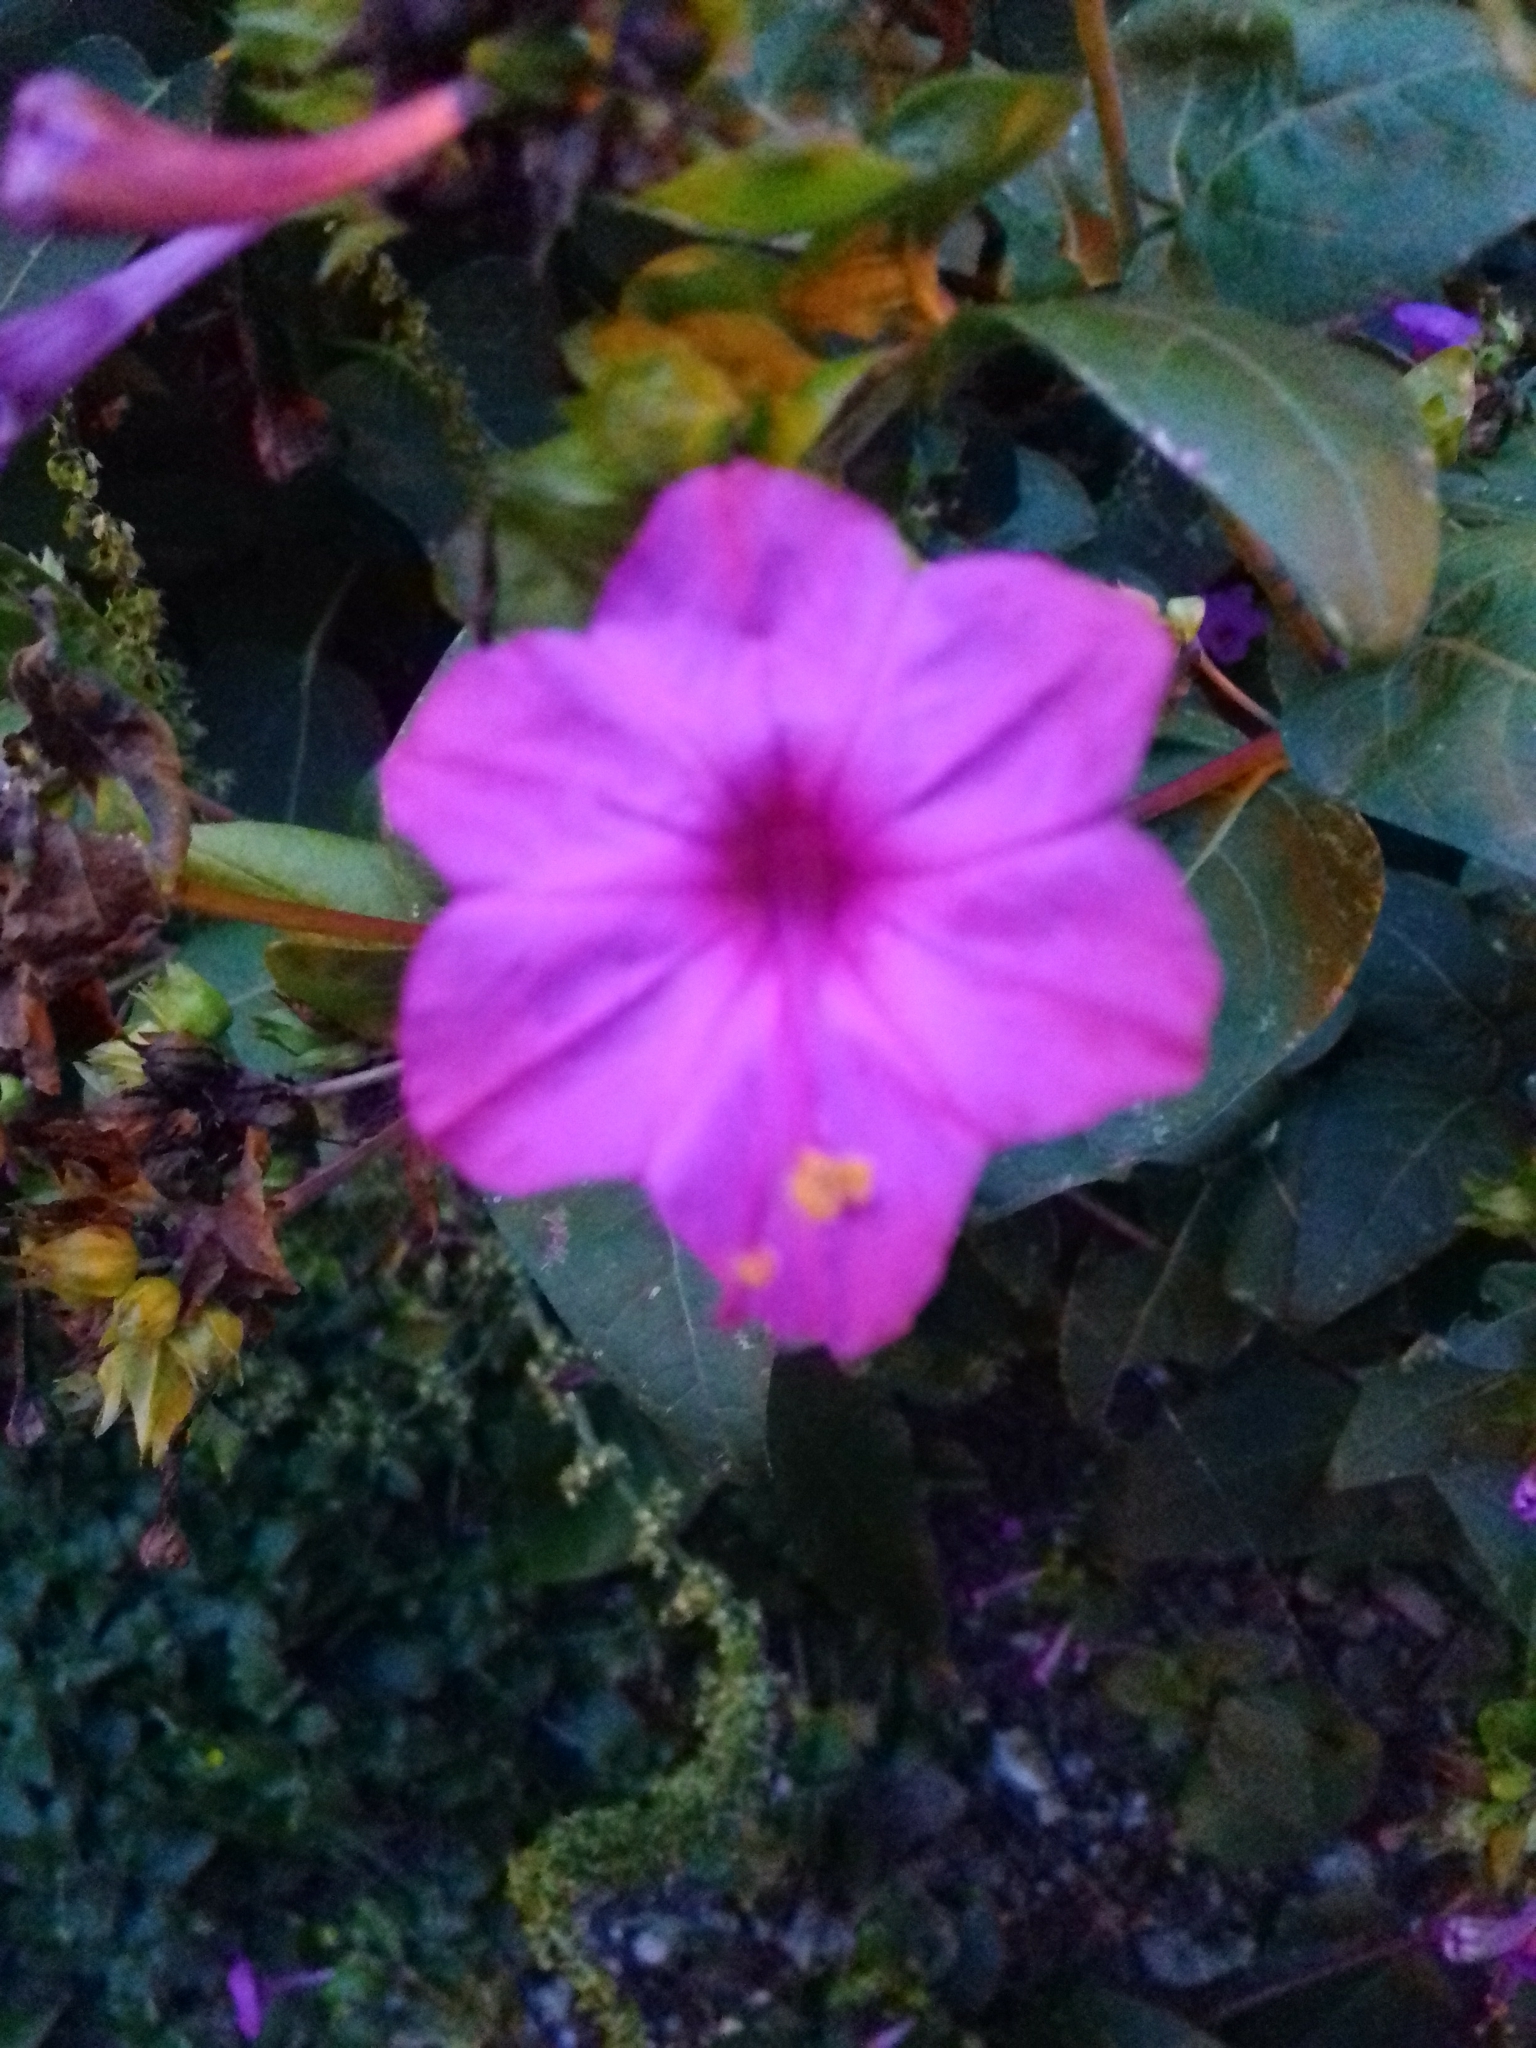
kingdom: Plantae
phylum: Tracheophyta
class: Magnoliopsida
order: Caryophyllales
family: Nyctaginaceae
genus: Mirabilis
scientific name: Mirabilis jalapa
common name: Marvel-of-peru
